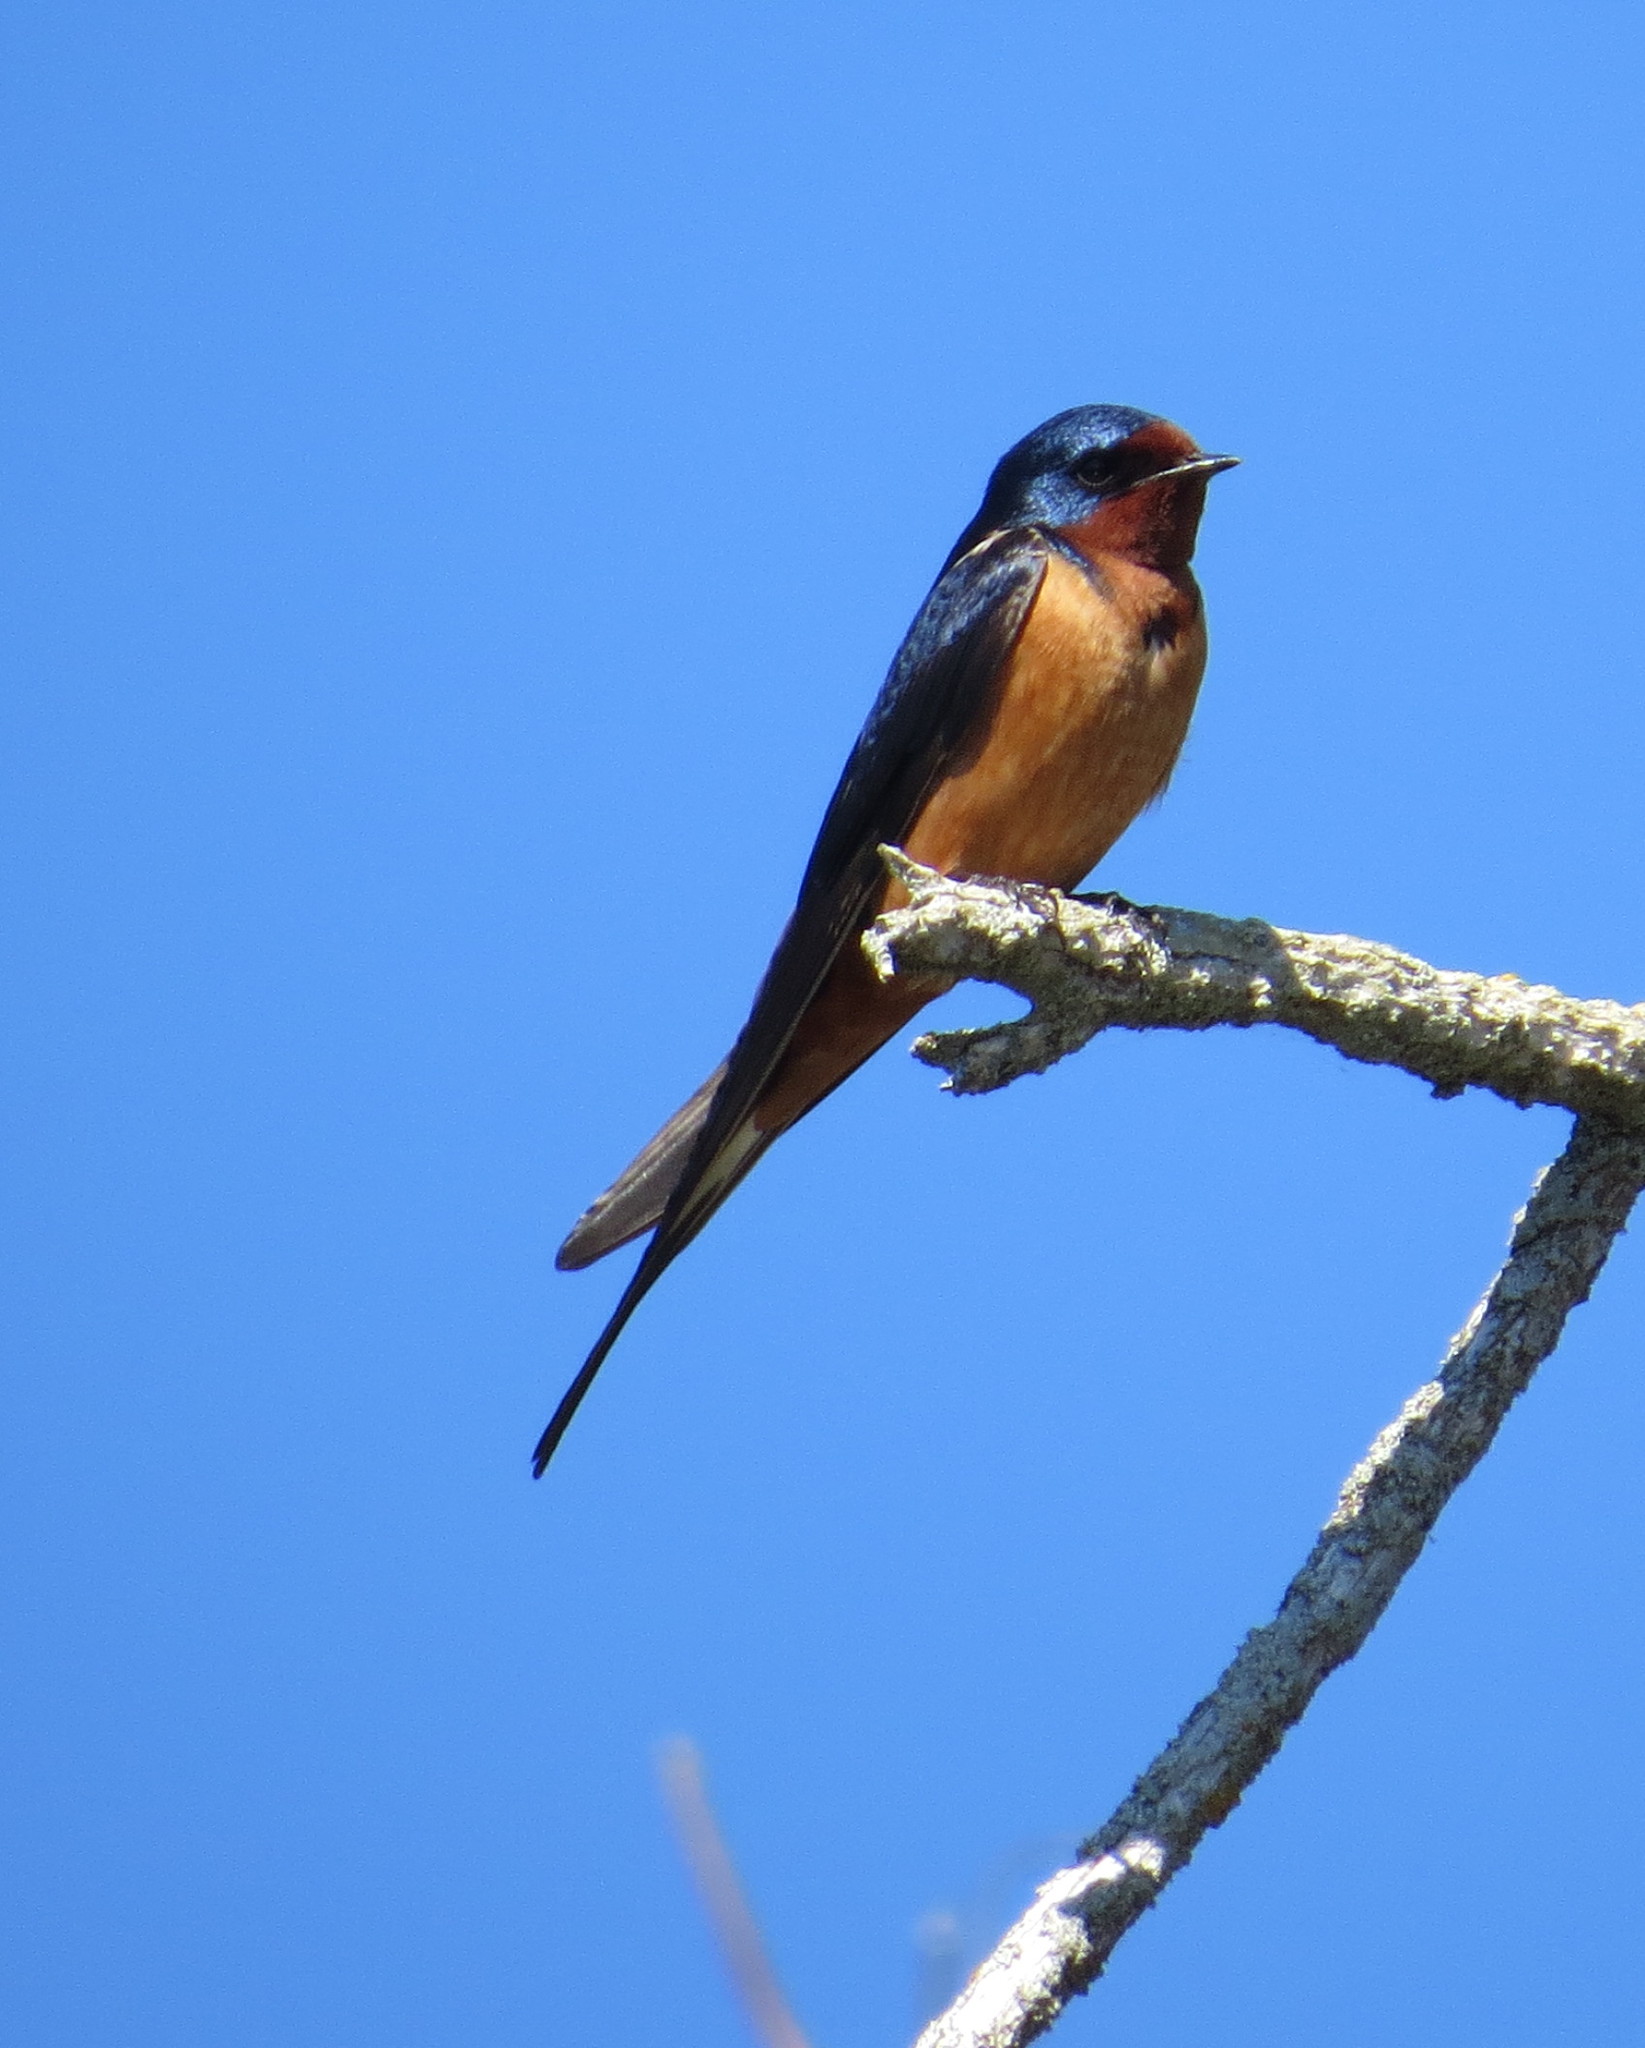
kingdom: Animalia
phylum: Chordata
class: Aves
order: Passeriformes
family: Hirundinidae
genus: Hirundo
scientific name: Hirundo rustica
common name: Barn swallow
